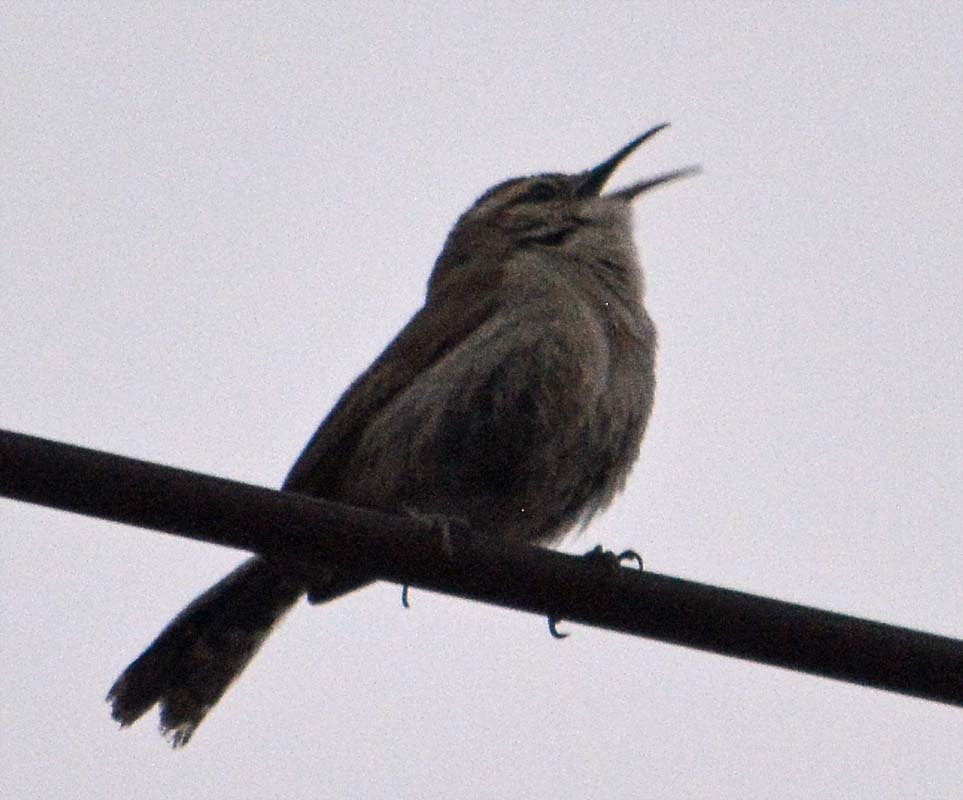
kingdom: Animalia
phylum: Chordata
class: Aves
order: Passeriformes
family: Troglodytidae
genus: Thryomanes
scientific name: Thryomanes bewickii
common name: Bewick's wren
